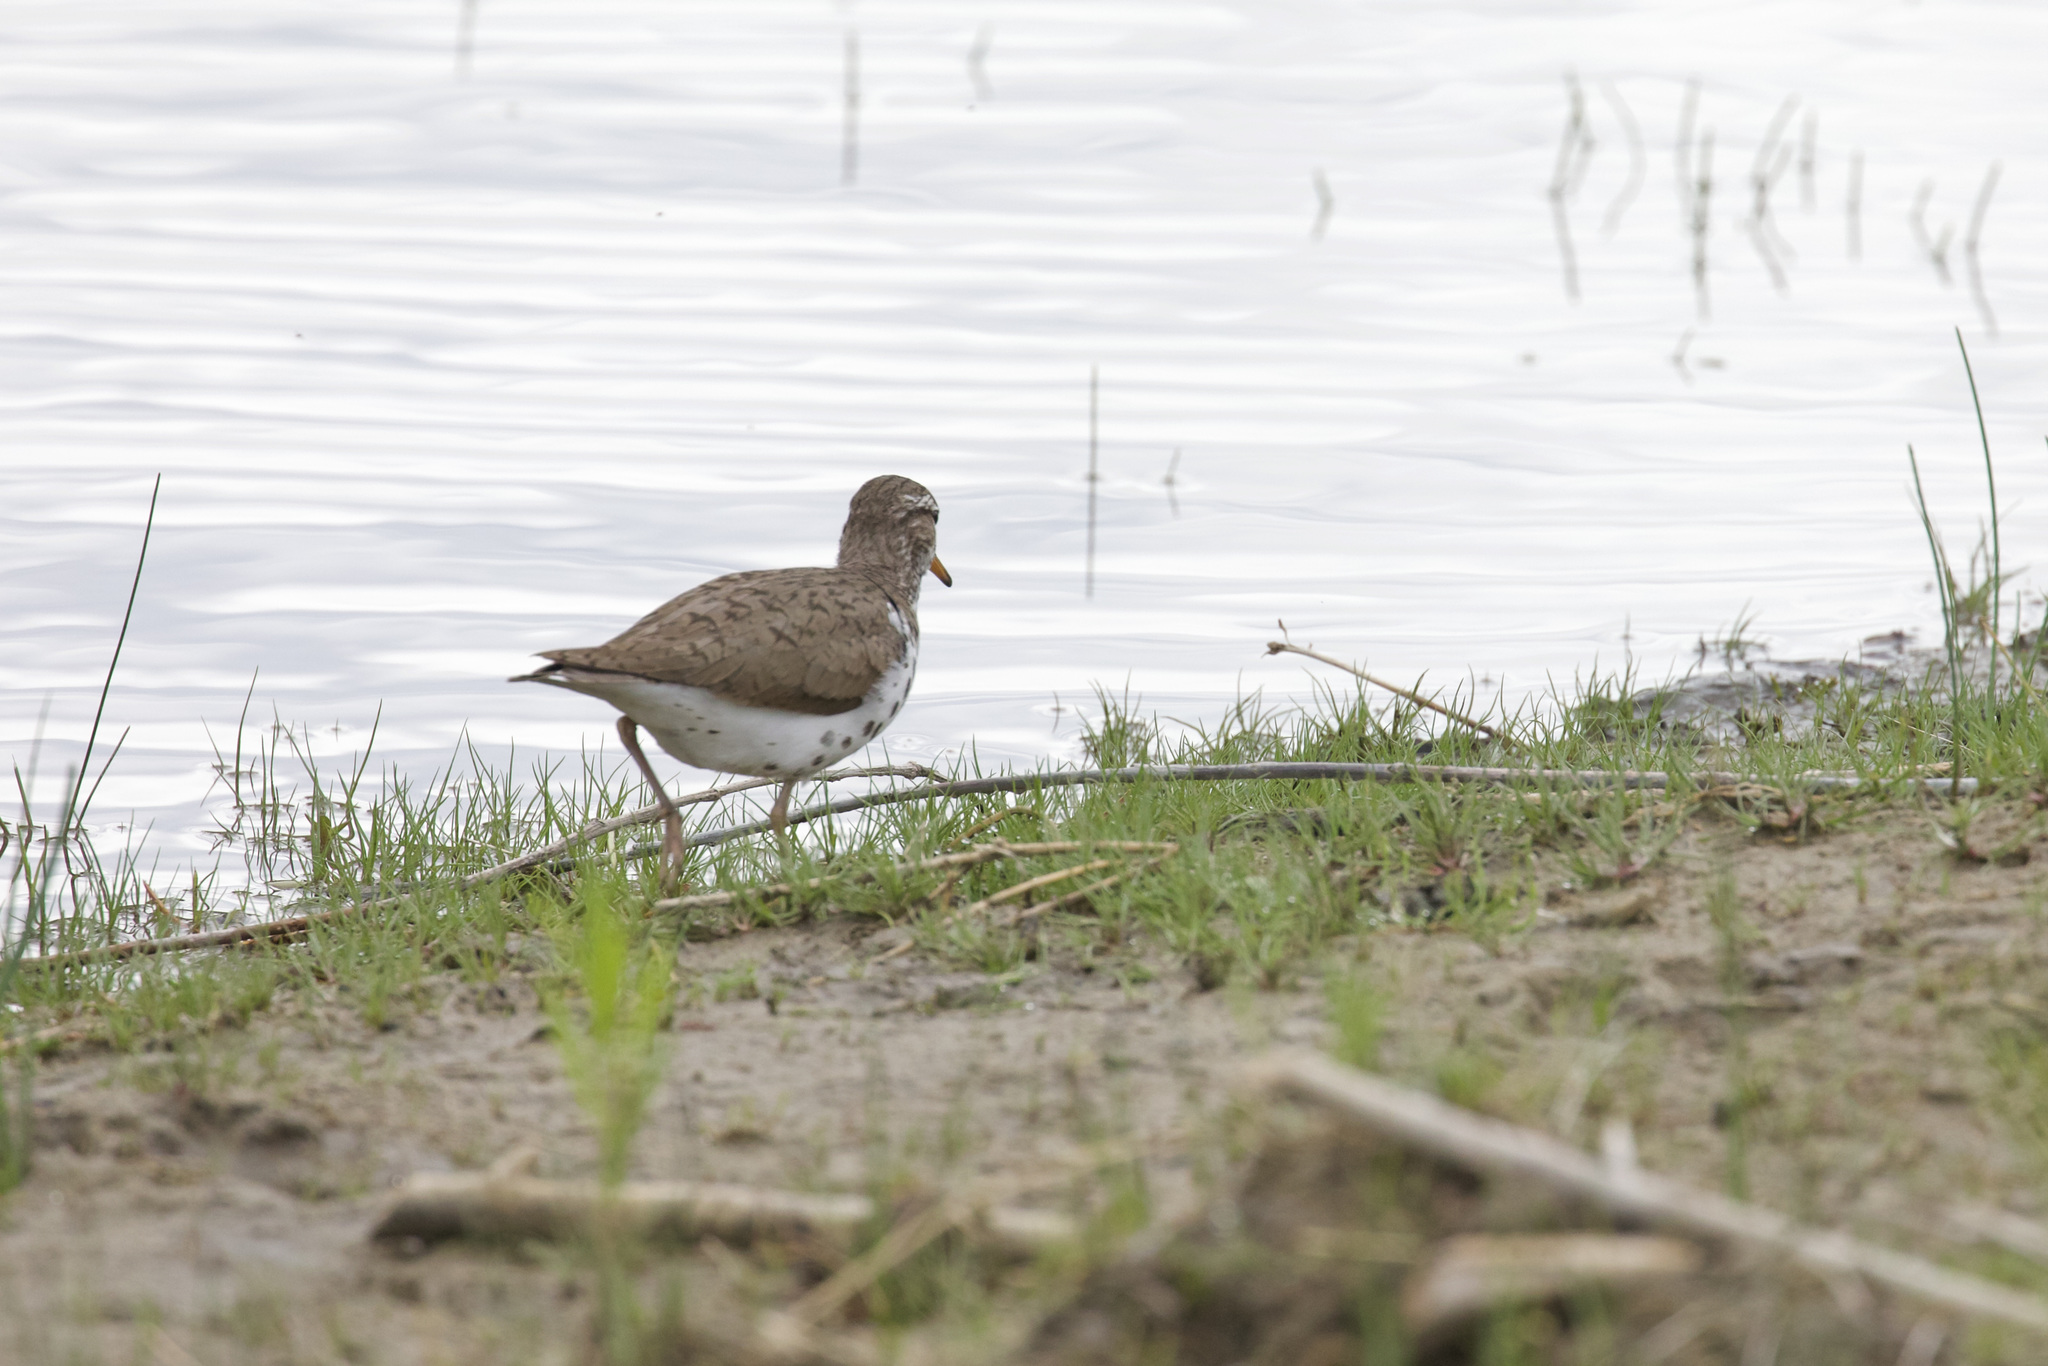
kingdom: Animalia
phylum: Chordata
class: Aves
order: Charadriiformes
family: Scolopacidae
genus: Actitis
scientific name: Actitis macularius
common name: Spotted sandpiper
